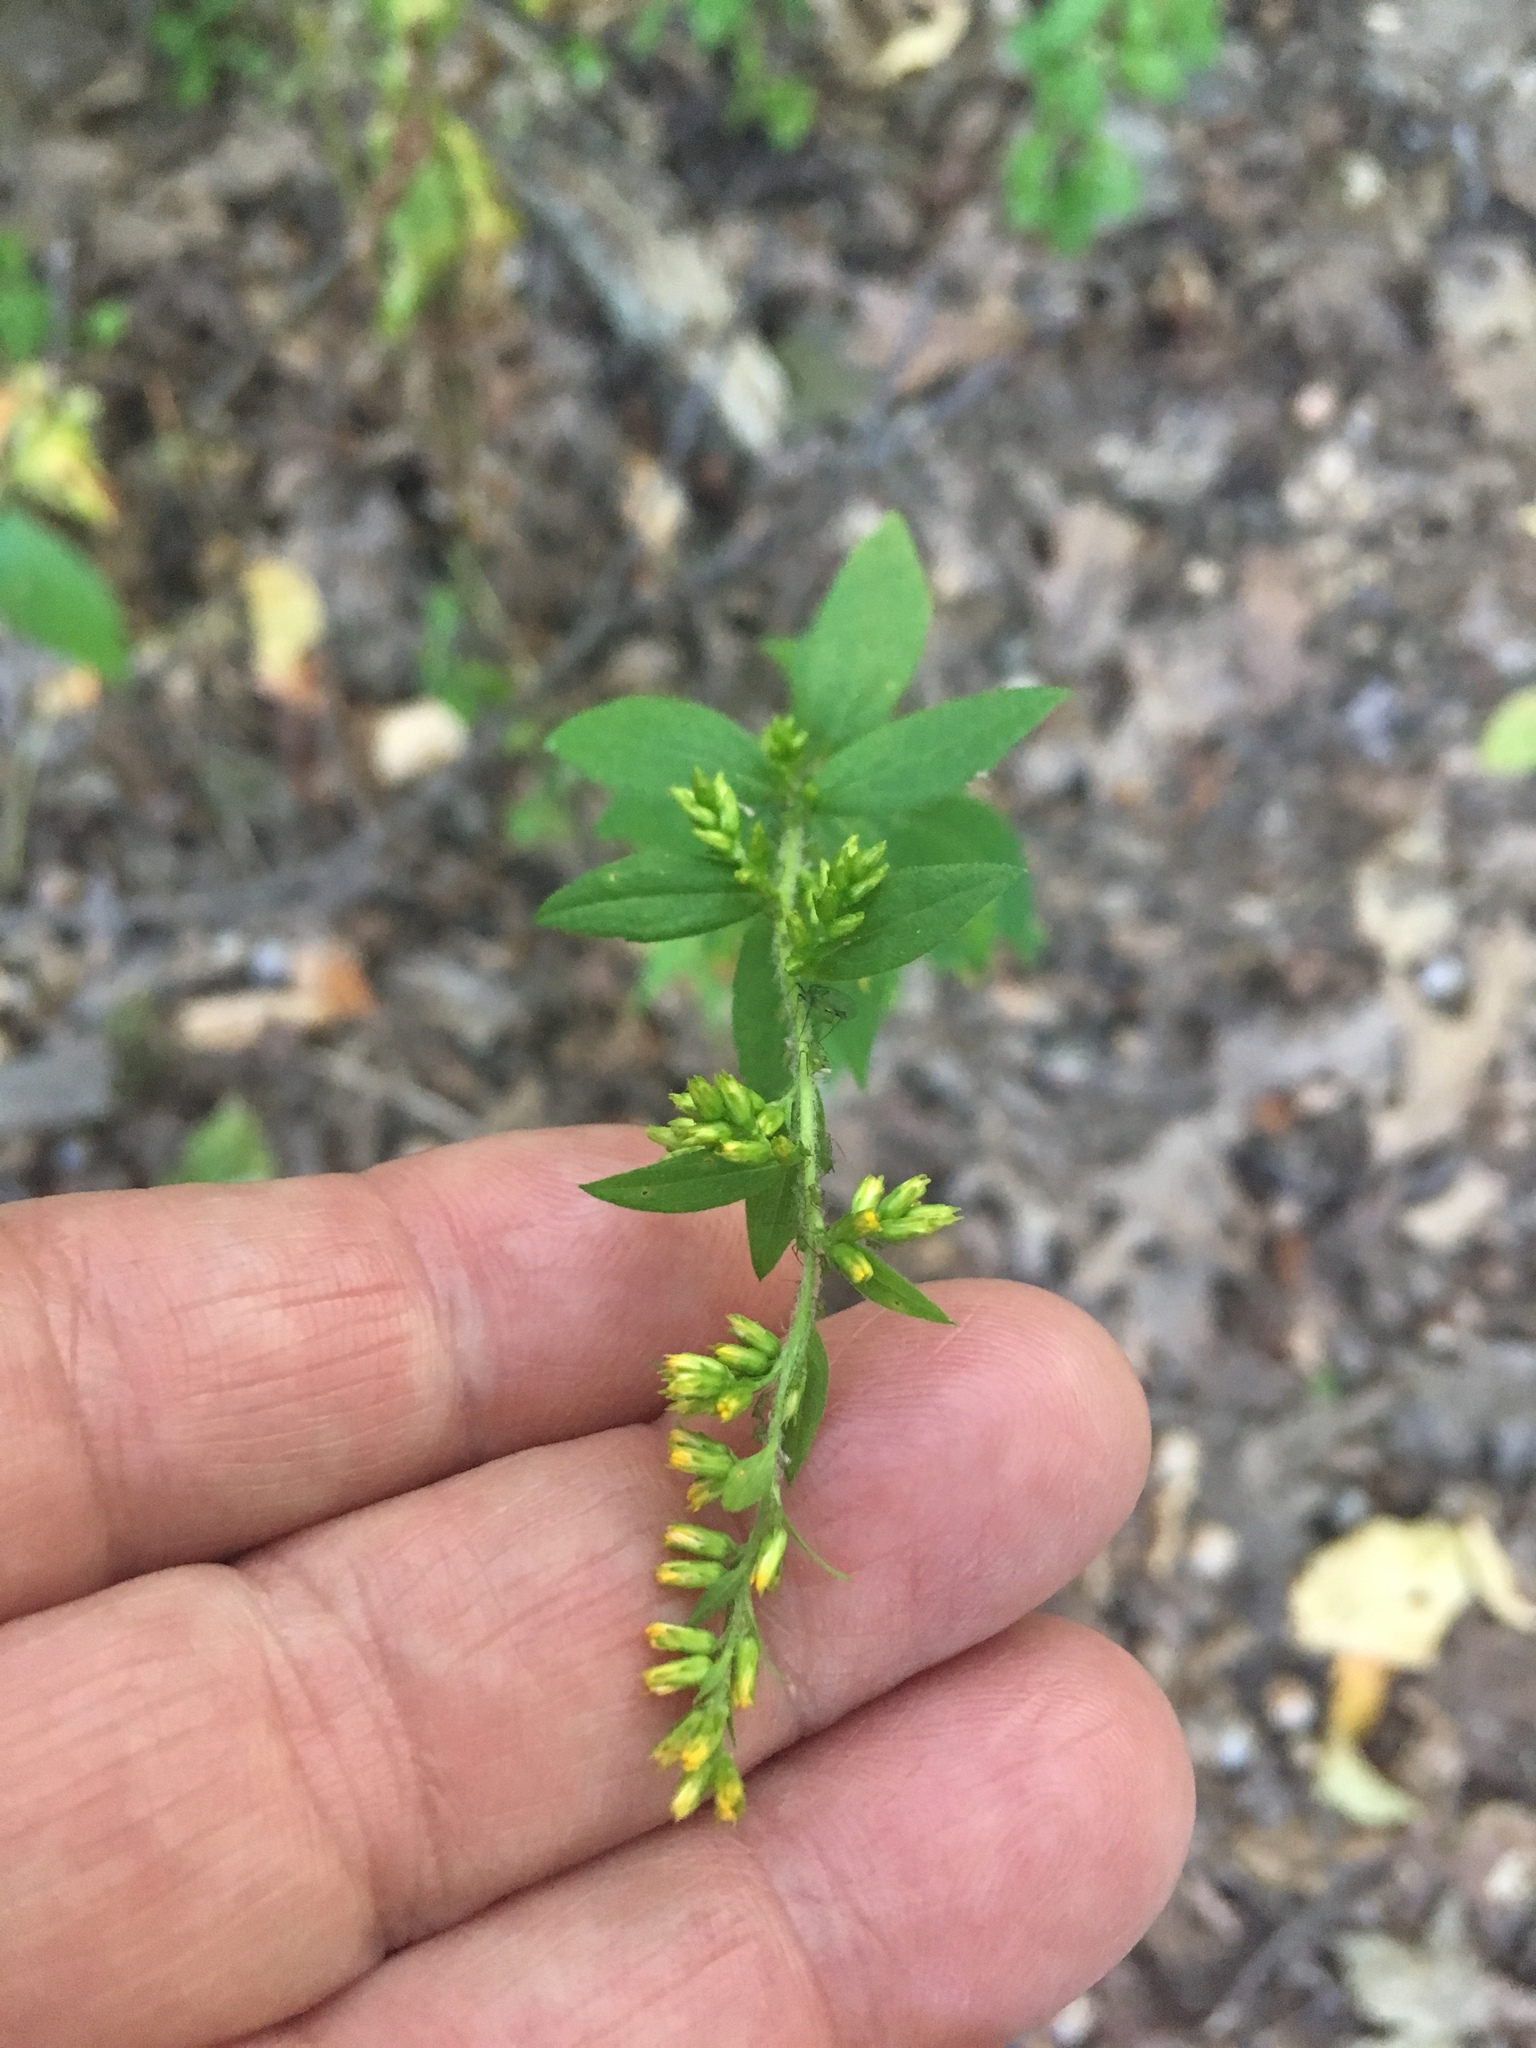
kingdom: Plantae
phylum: Tracheophyta
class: Magnoliopsida
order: Asterales
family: Asteraceae
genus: Solidago
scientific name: Solidago rugosa
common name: Rough-stemmed goldenrod
